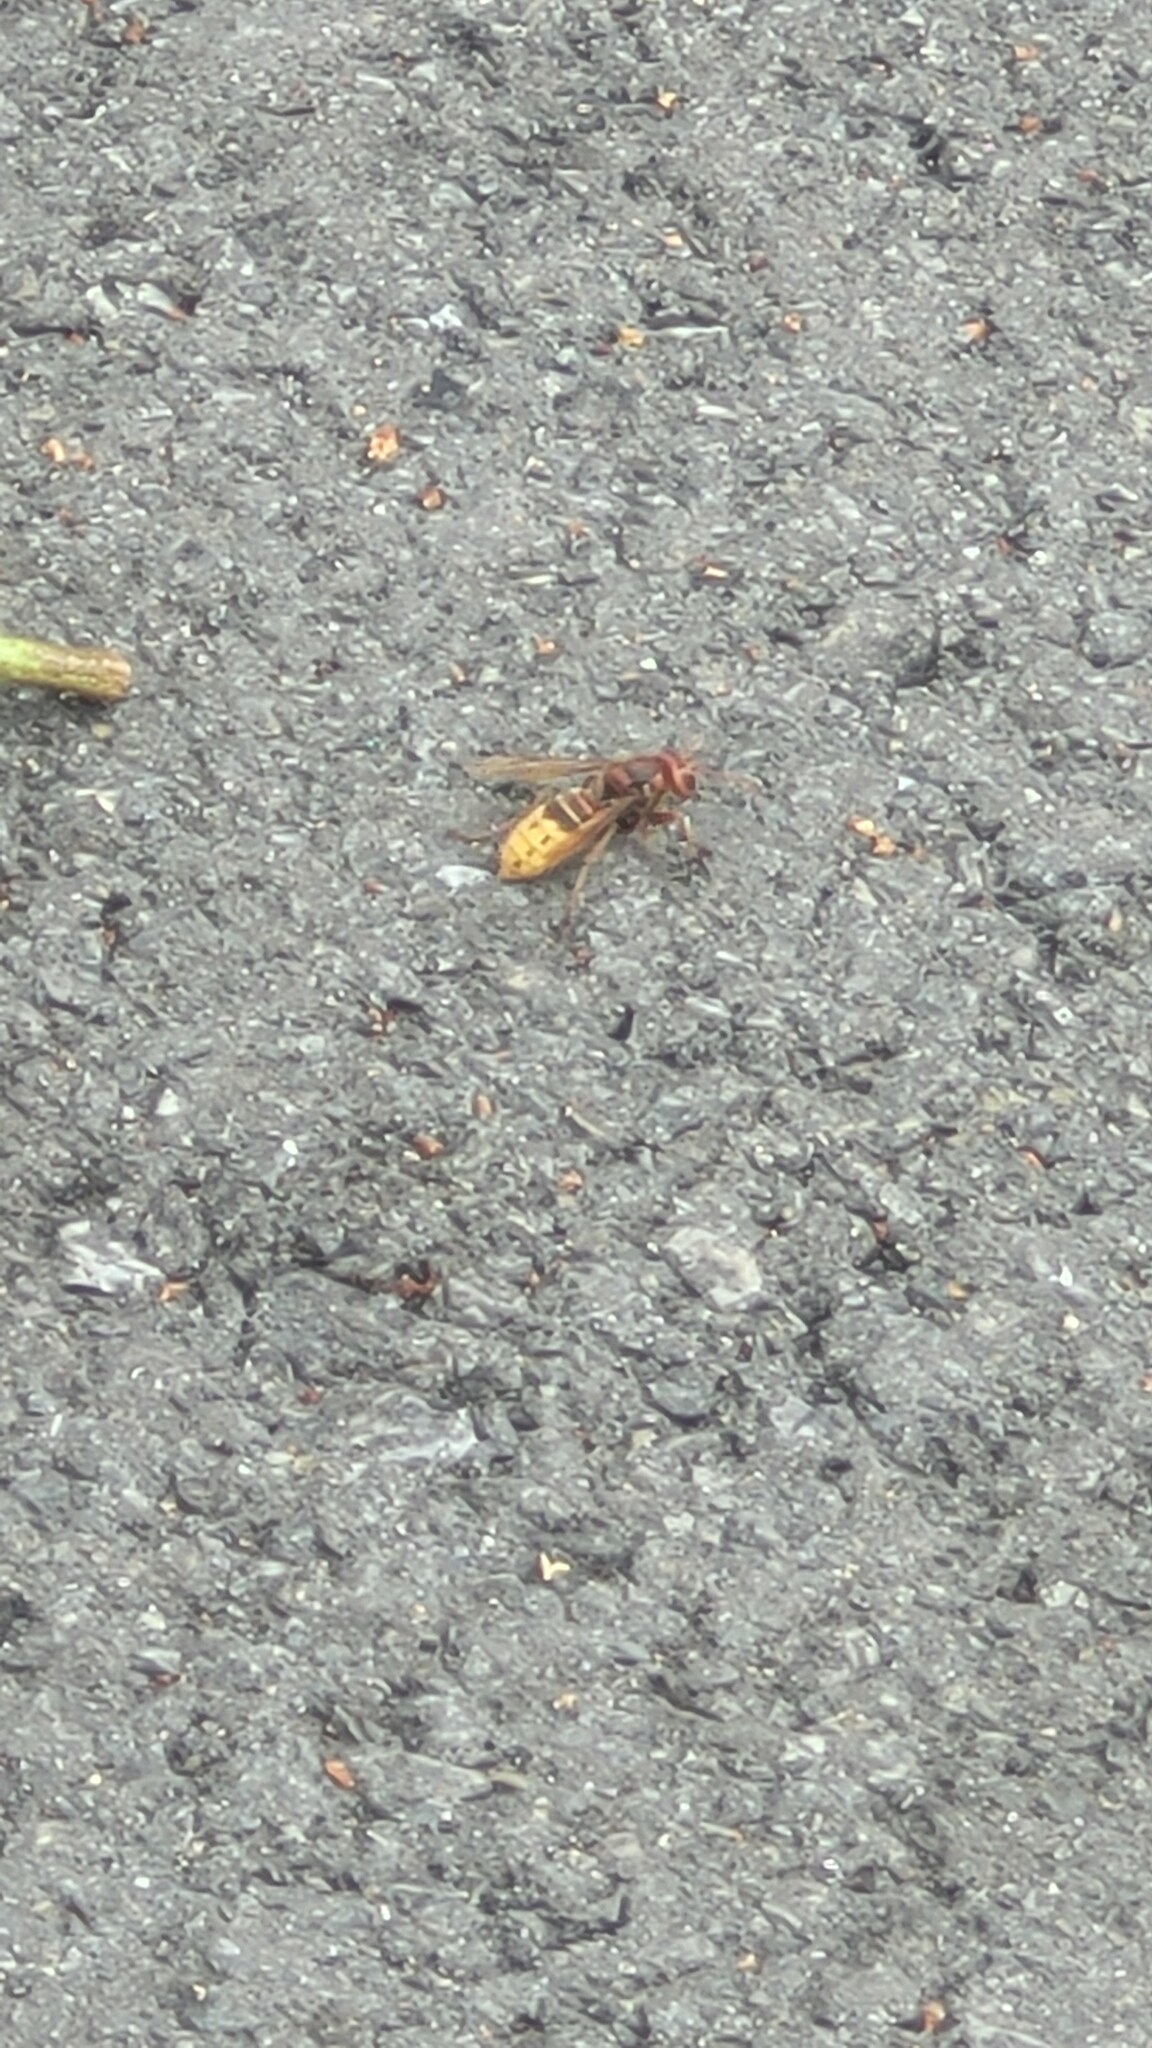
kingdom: Animalia
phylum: Arthropoda
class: Insecta
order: Hymenoptera
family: Vespidae
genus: Vespa
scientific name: Vespa crabro
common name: Hornet
